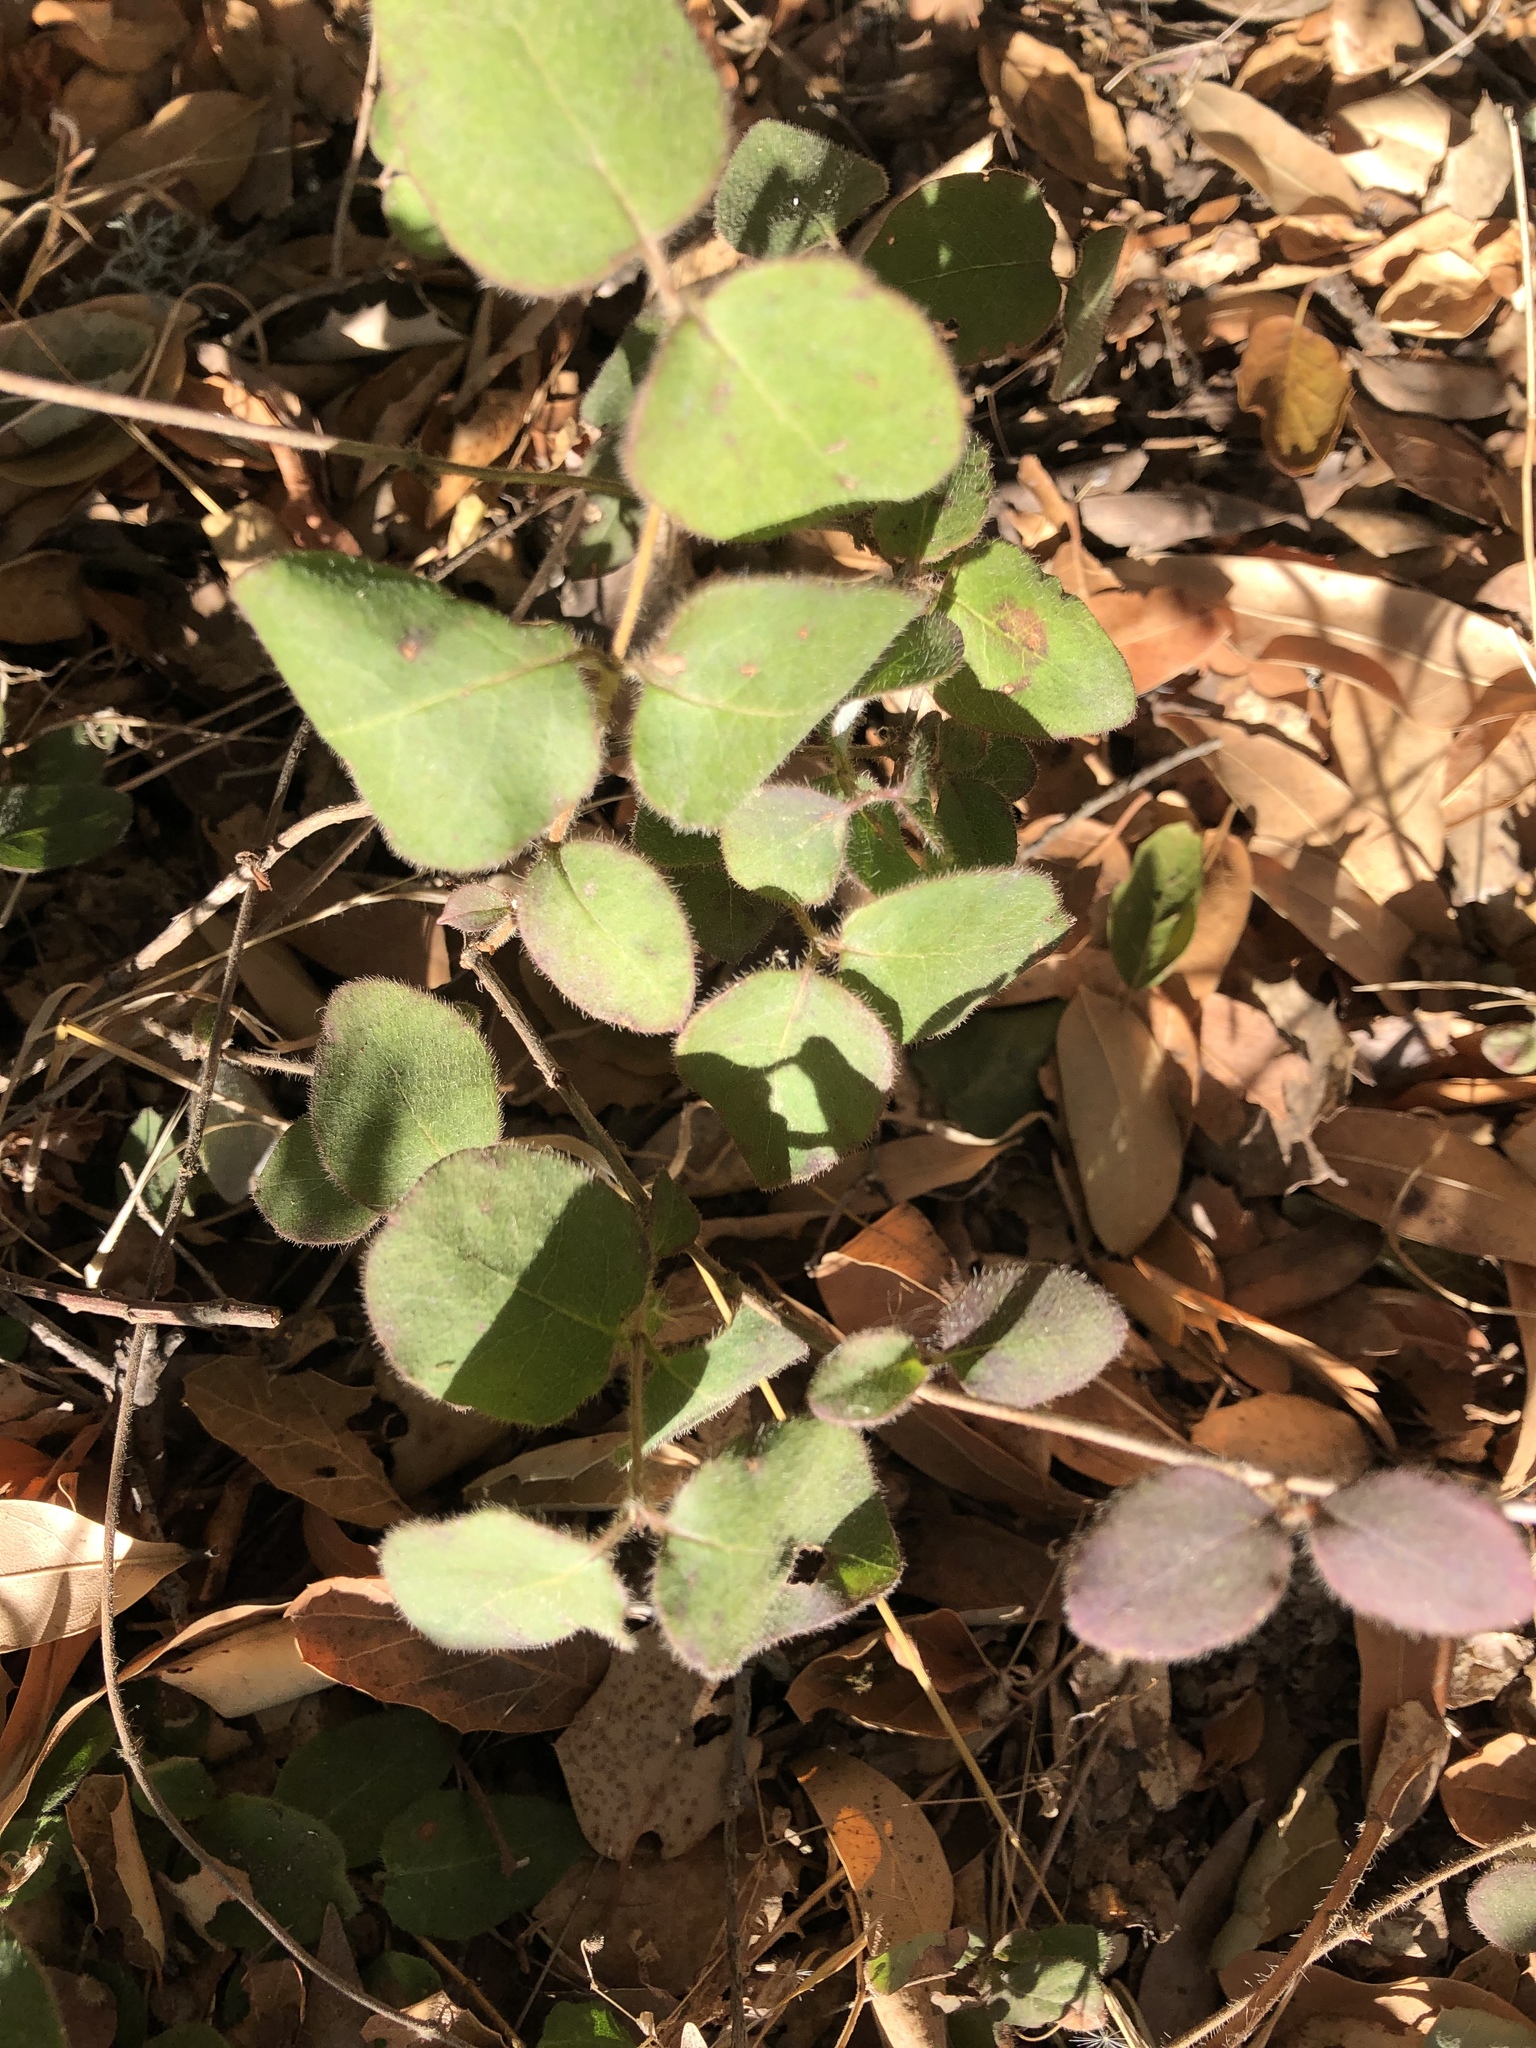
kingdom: Plantae
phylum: Tracheophyta
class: Magnoliopsida
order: Dipsacales
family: Caprifoliaceae
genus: Lonicera
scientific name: Lonicera hispidula
